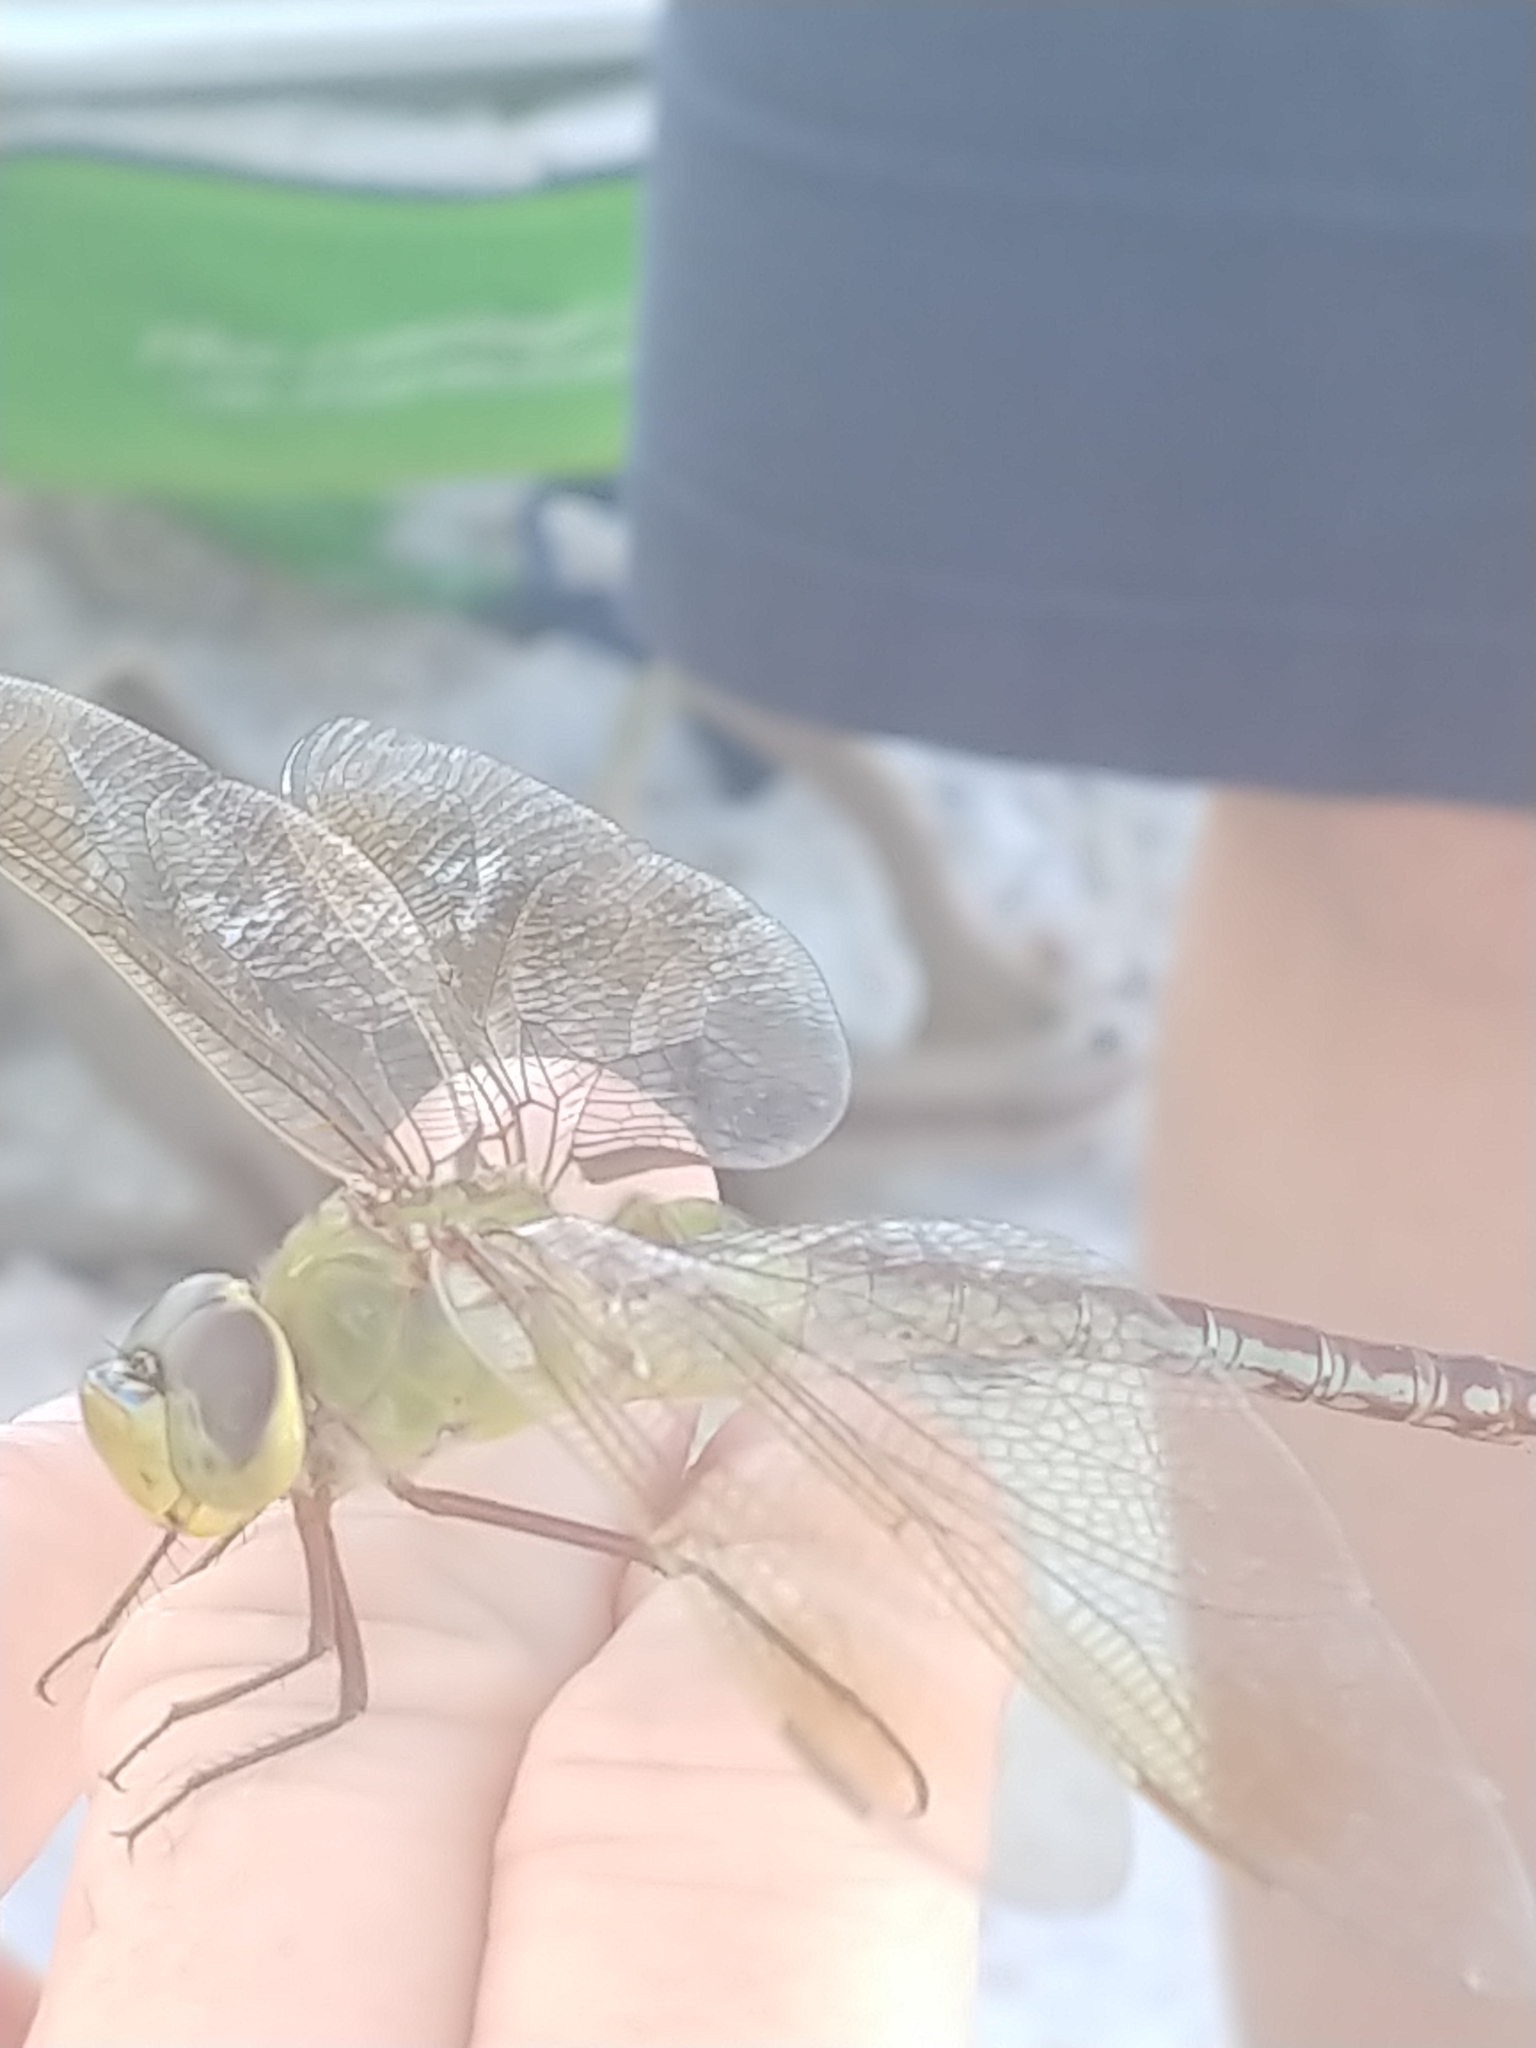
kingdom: Animalia
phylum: Arthropoda
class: Insecta
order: Odonata
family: Aeshnidae
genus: Anax
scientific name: Anax junius
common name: Common green darner
